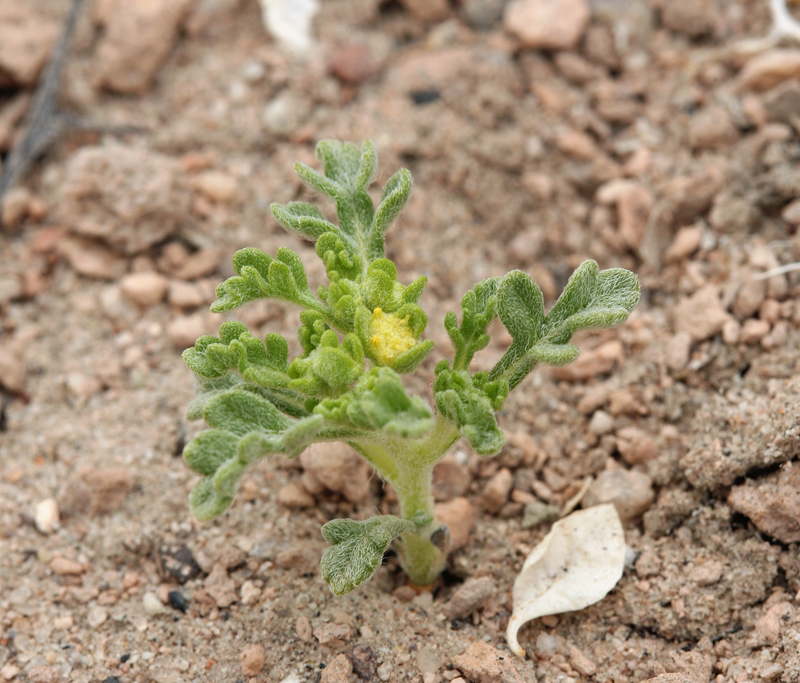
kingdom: Plantae
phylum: Tracheophyta
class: Magnoliopsida
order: Asterales
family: Asteraceae
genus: Euphrosyne
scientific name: Euphrosyne nevadensis
